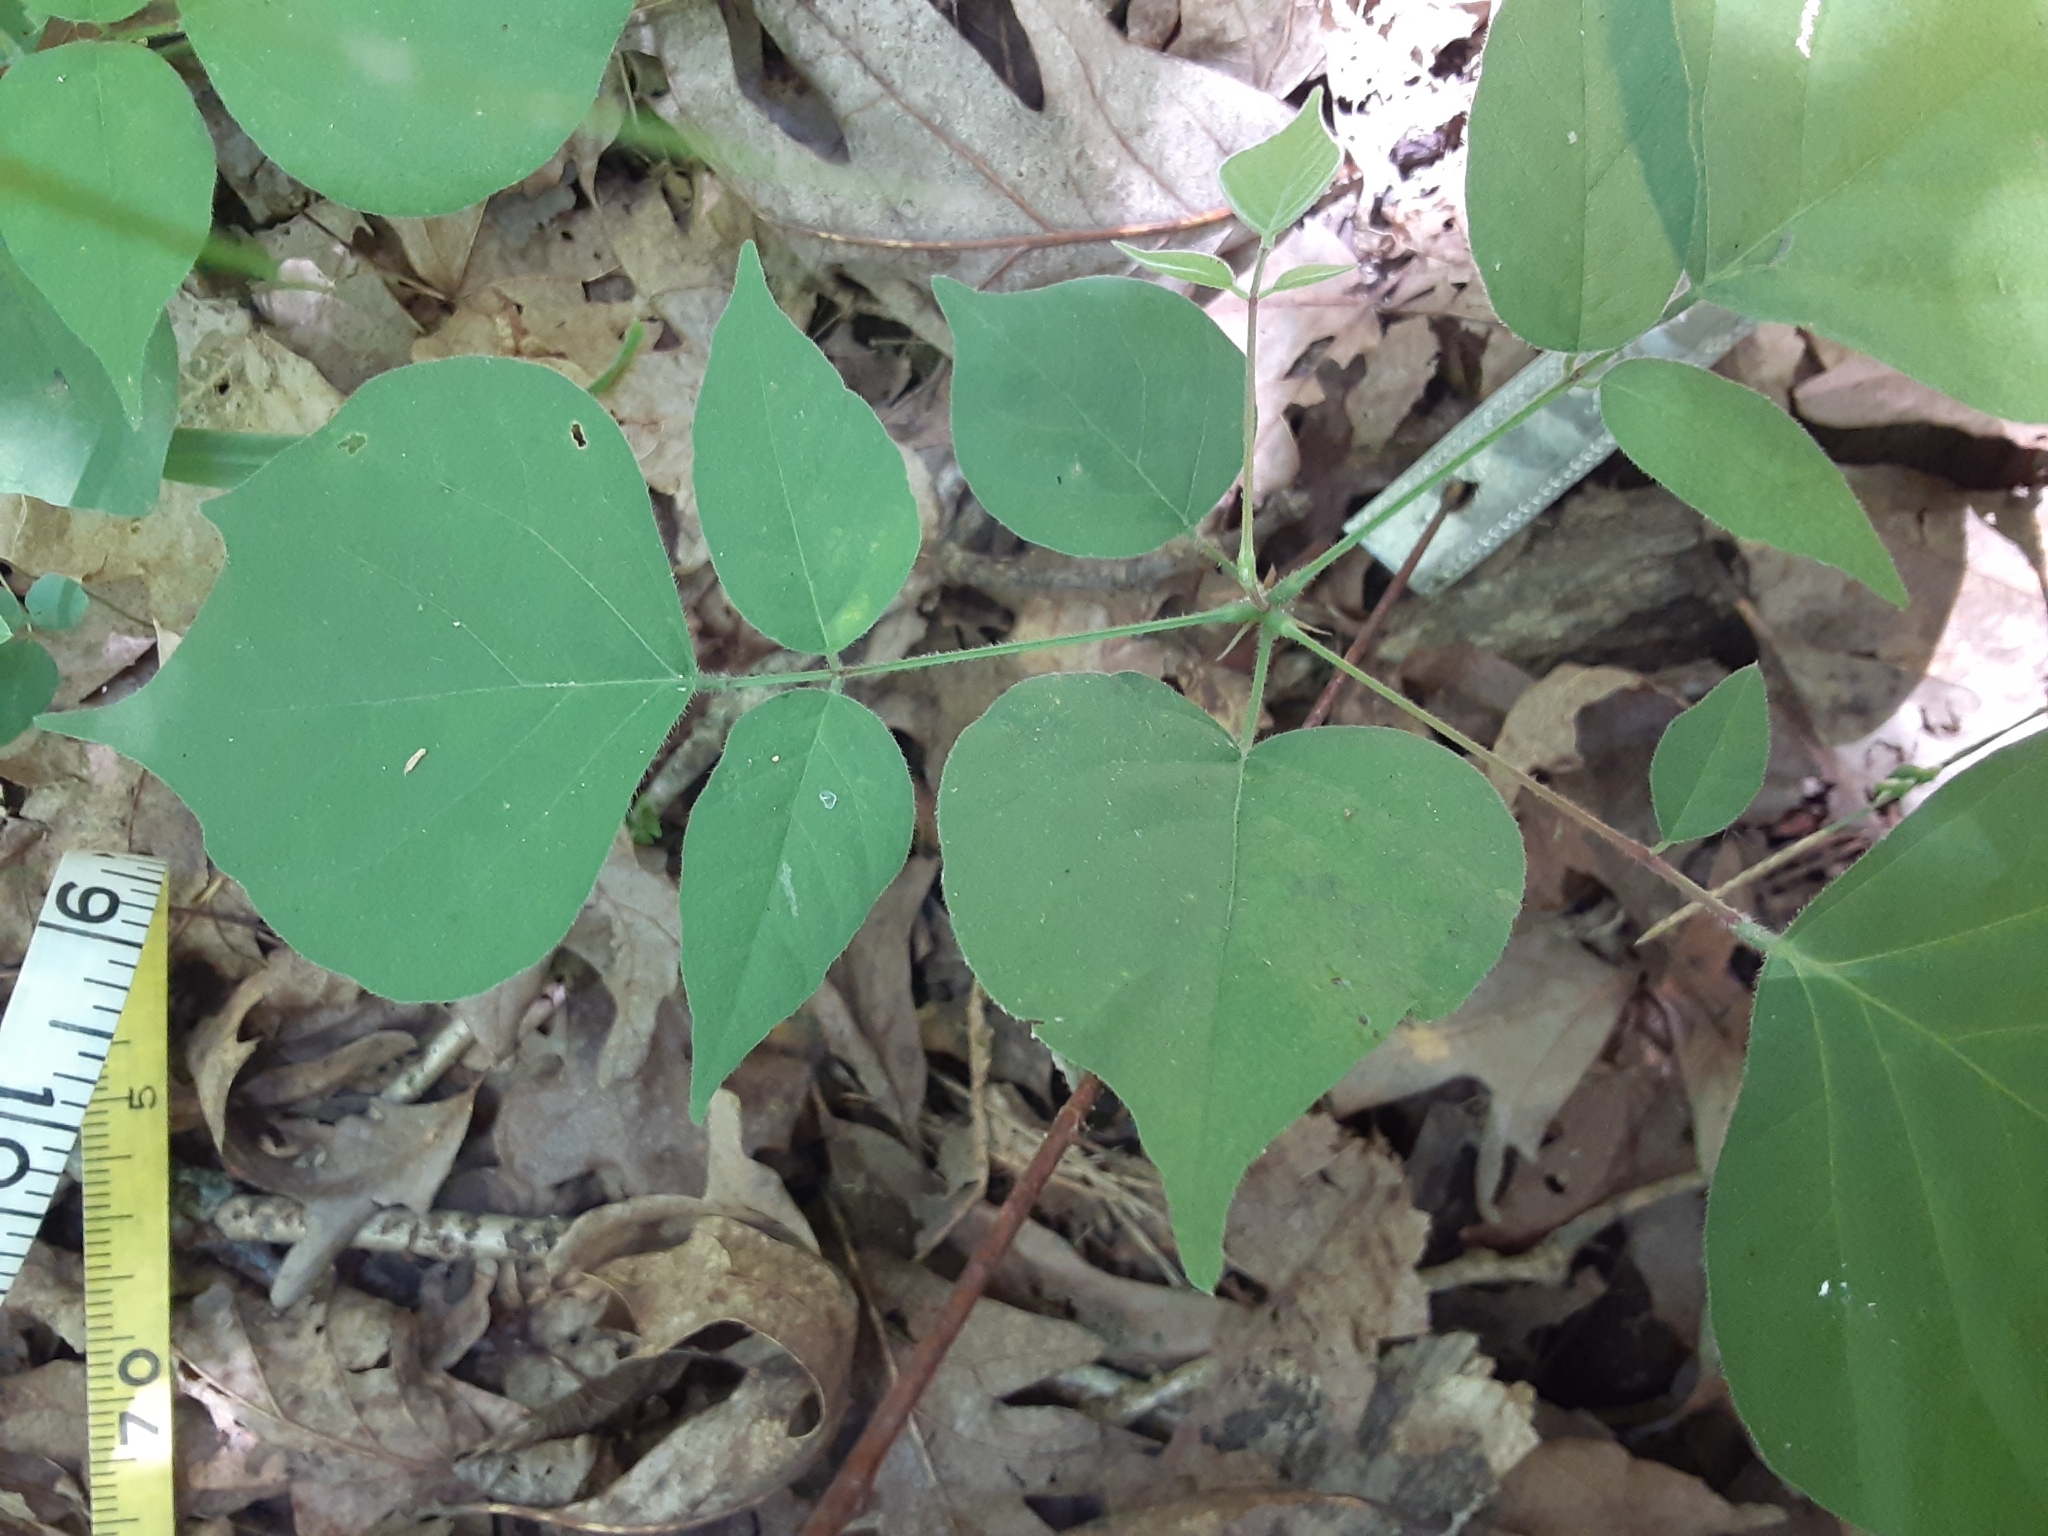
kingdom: Plantae
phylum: Tracheophyta
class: Magnoliopsida
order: Fabales
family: Fabaceae
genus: Hylodesmum
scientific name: Hylodesmum glutinosum
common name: Clustered-leaved tick-trefoil
